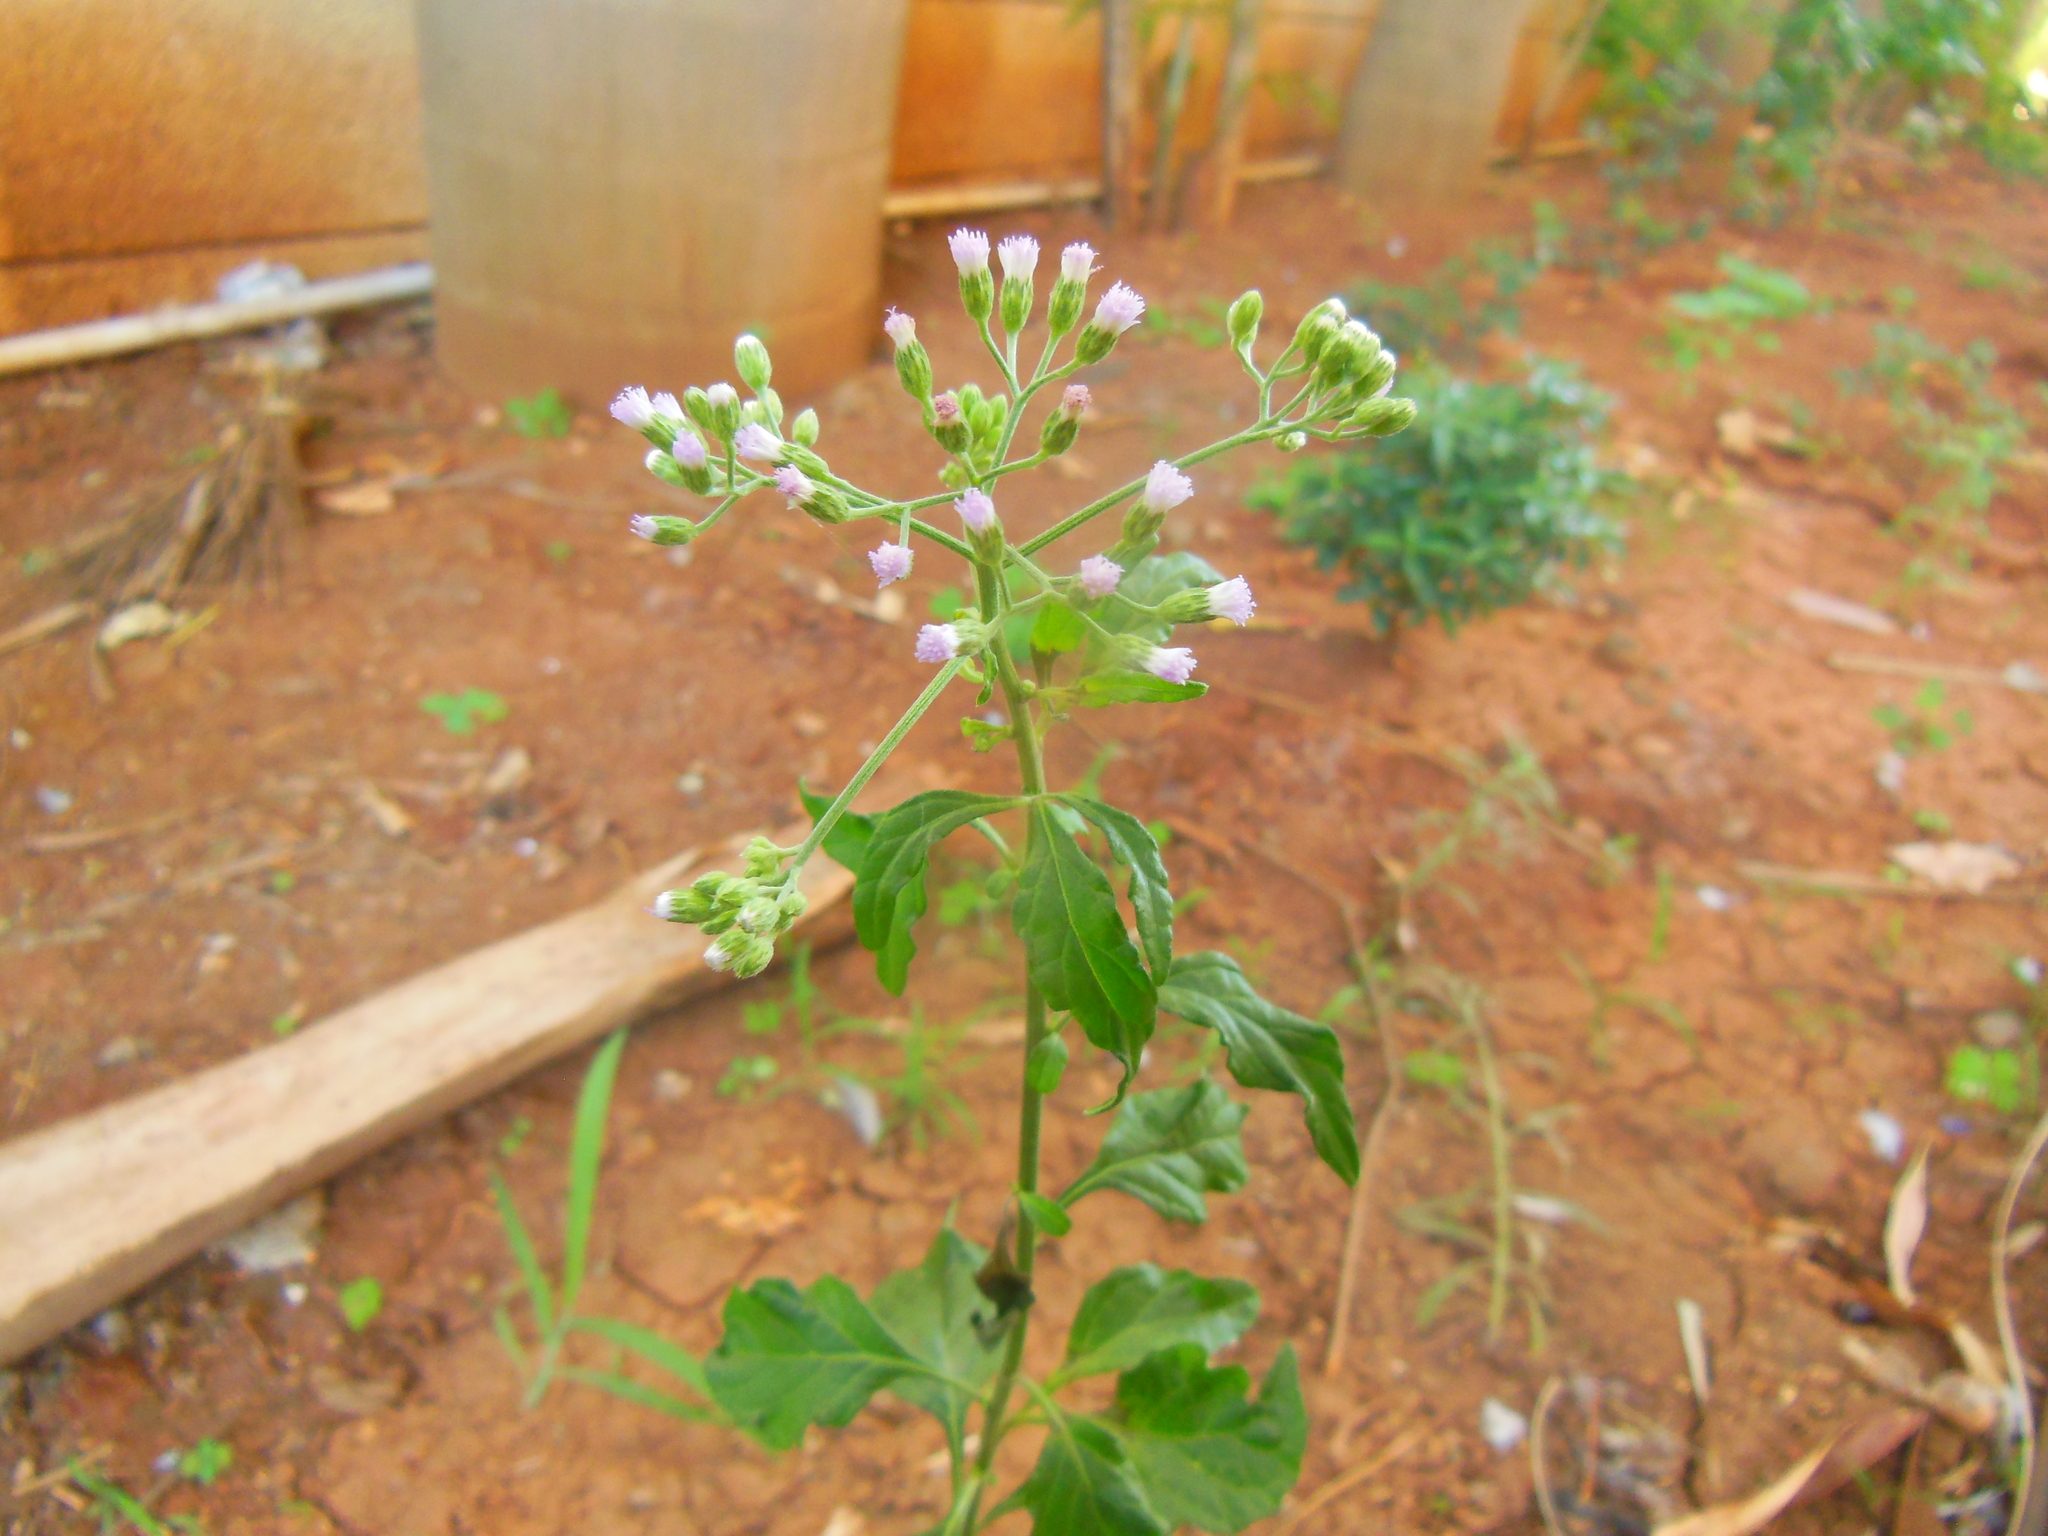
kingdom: Plantae
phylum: Tracheophyta
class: Magnoliopsida
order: Asterales
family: Asteraceae
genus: Cyanthillium
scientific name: Cyanthillium cinereum
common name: Little ironweed
